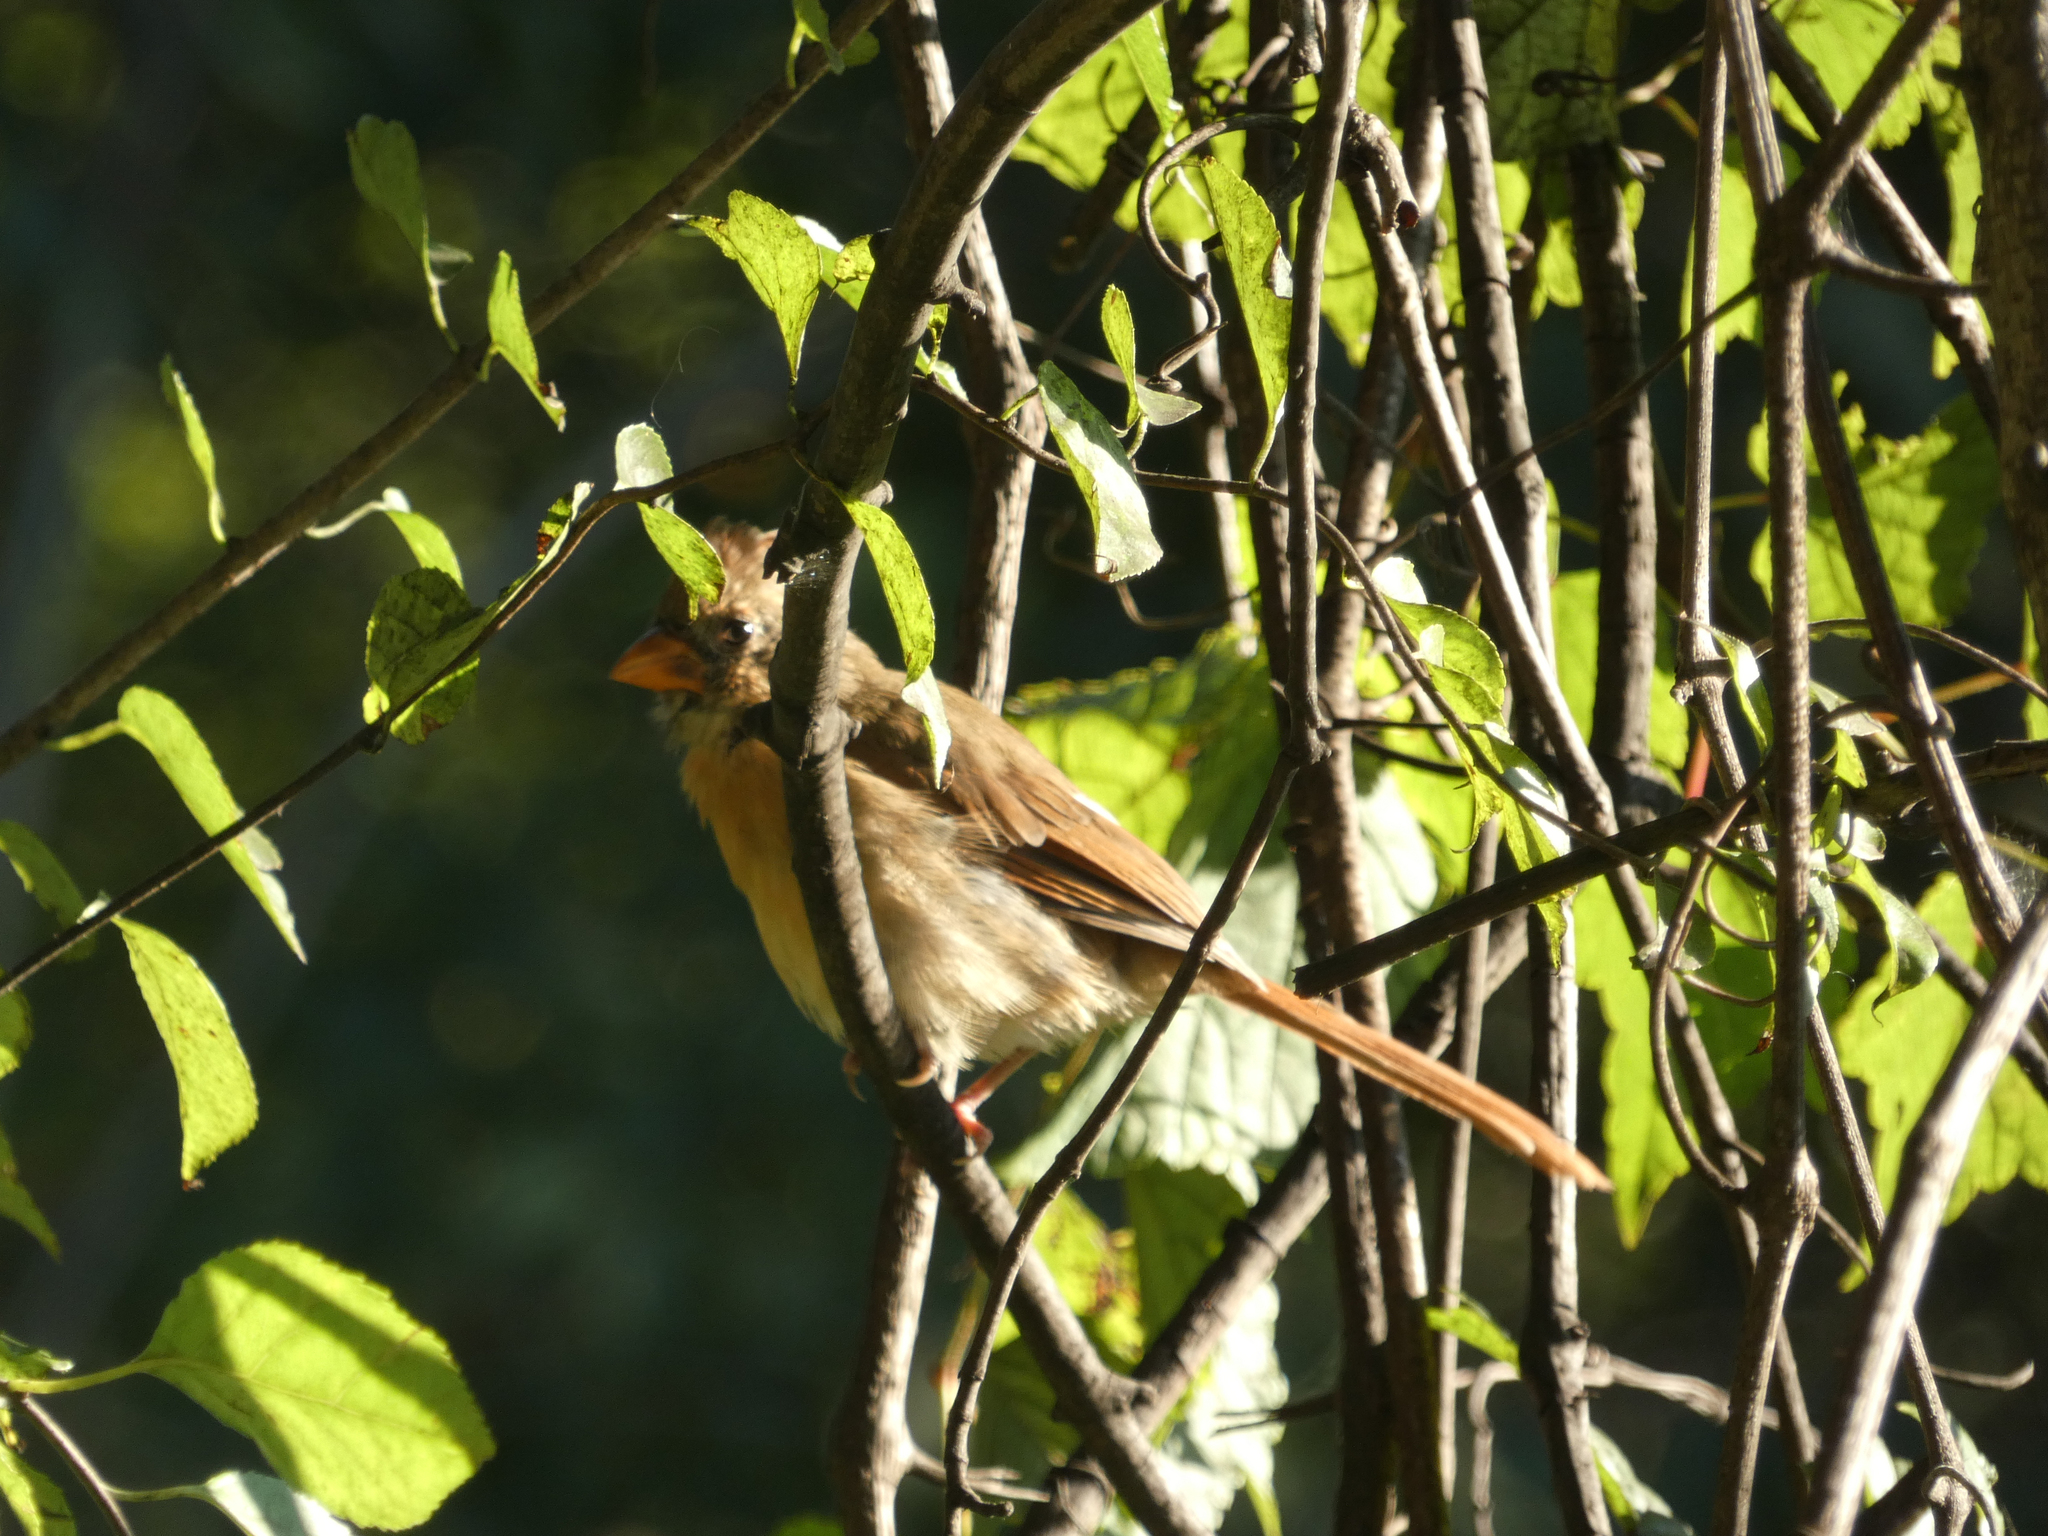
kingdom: Animalia
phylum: Chordata
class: Aves
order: Passeriformes
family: Cardinalidae
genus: Cardinalis
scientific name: Cardinalis cardinalis
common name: Northern cardinal
